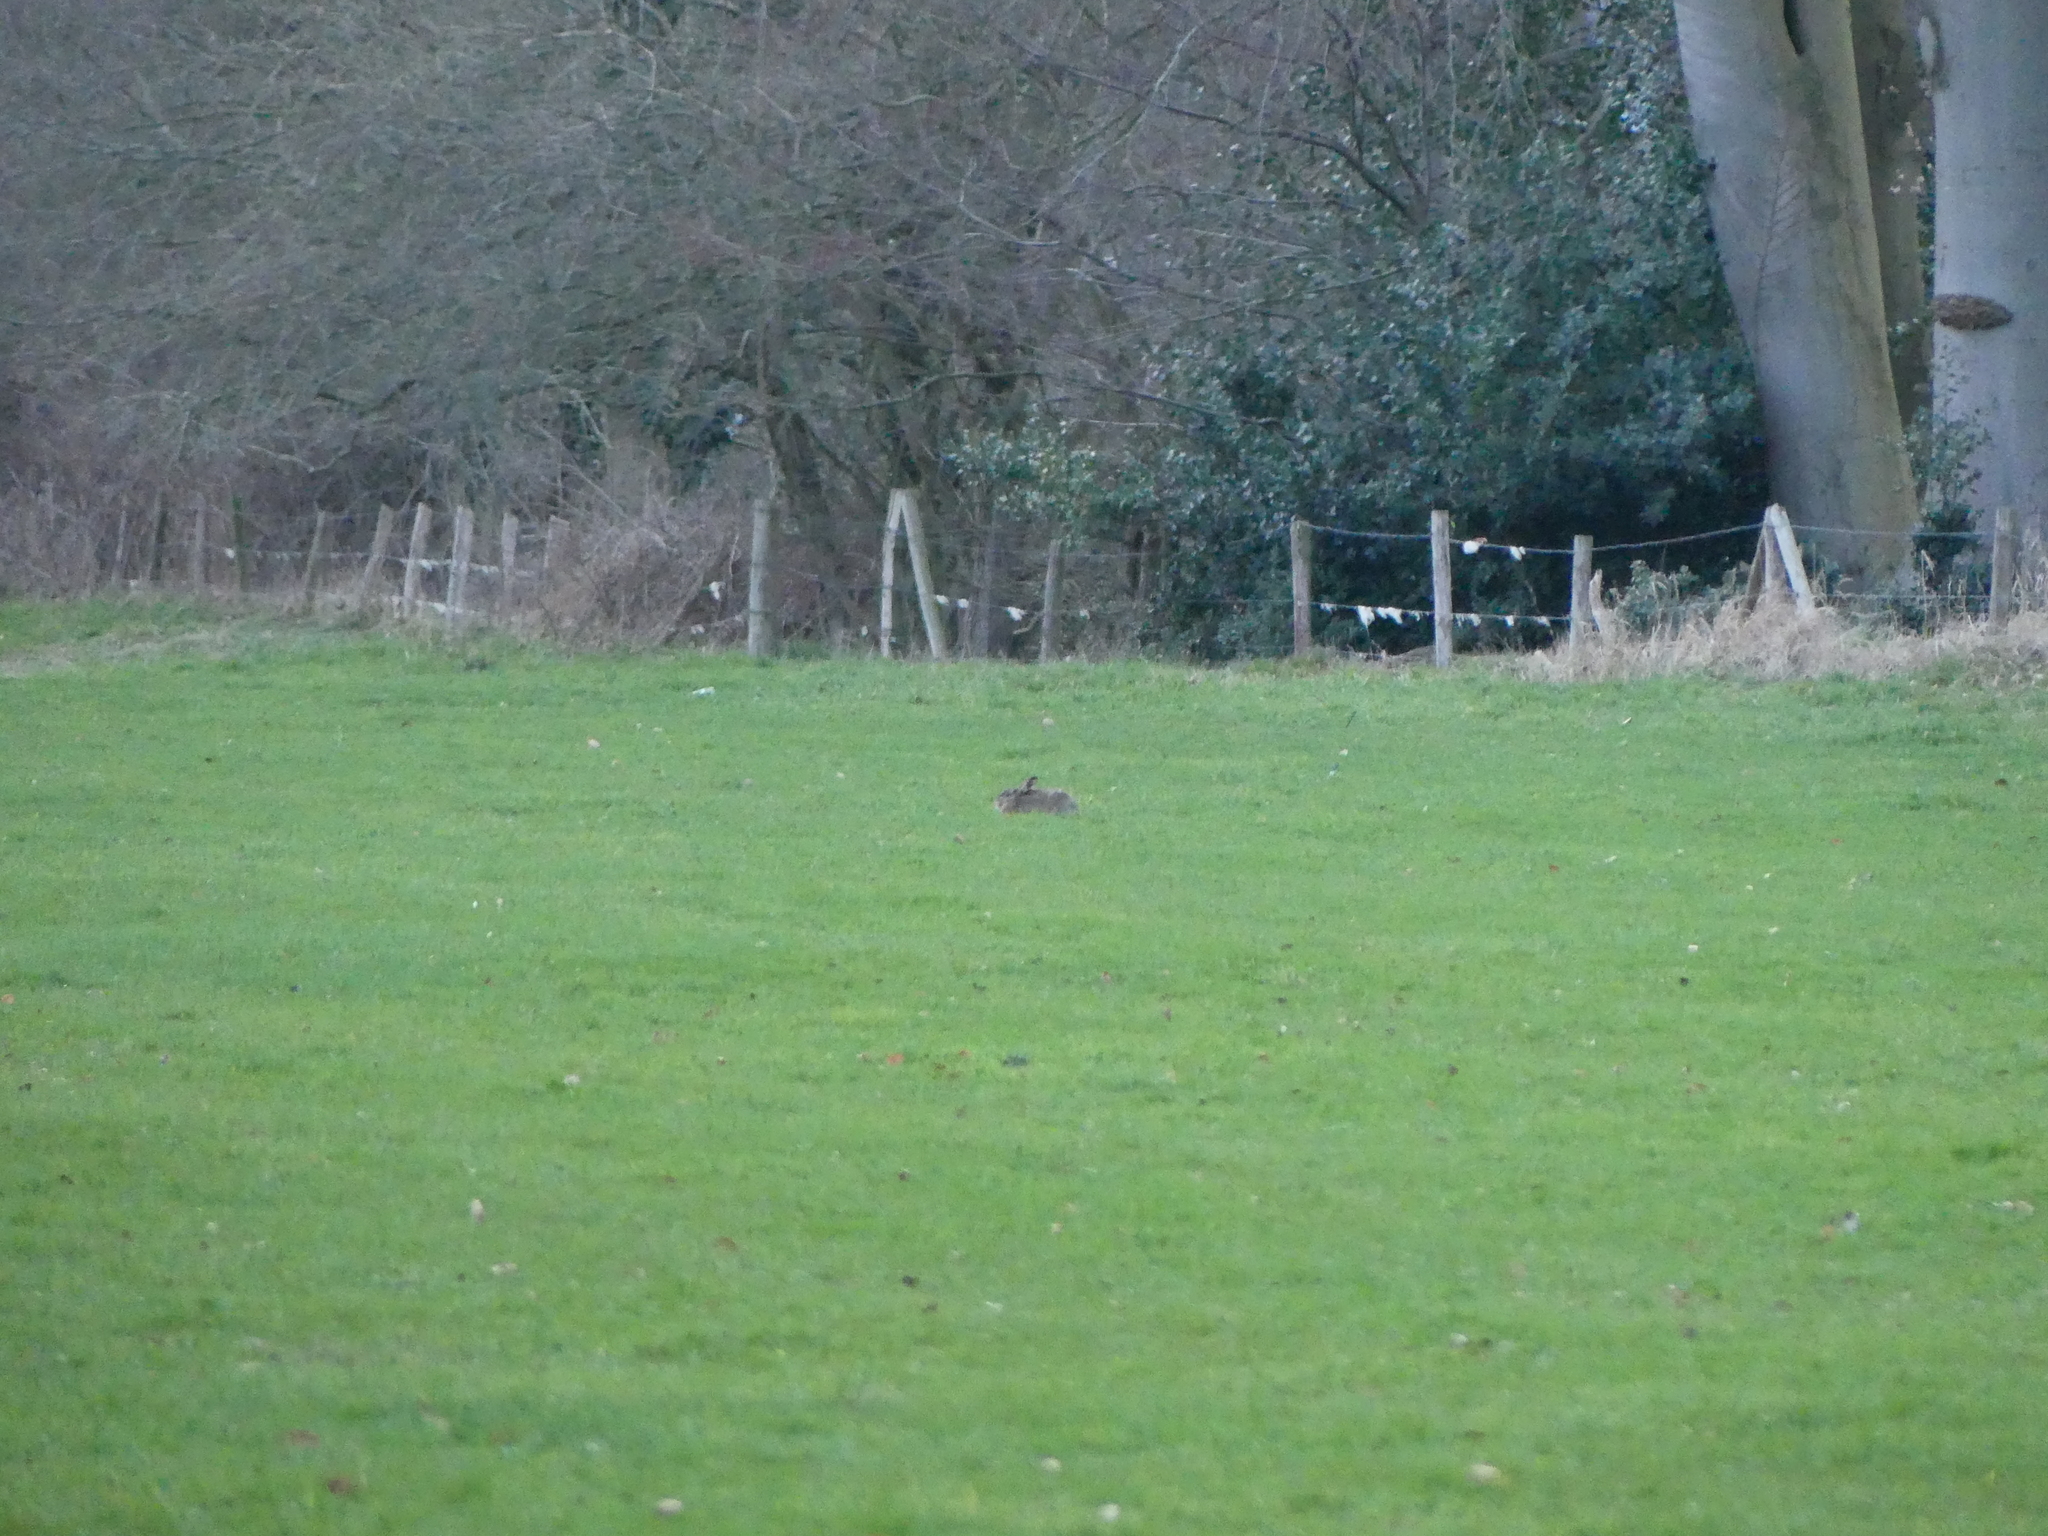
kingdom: Animalia
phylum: Chordata
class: Mammalia
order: Lagomorpha
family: Leporidae
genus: Lepus
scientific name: Lepus europaeus
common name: European hare
